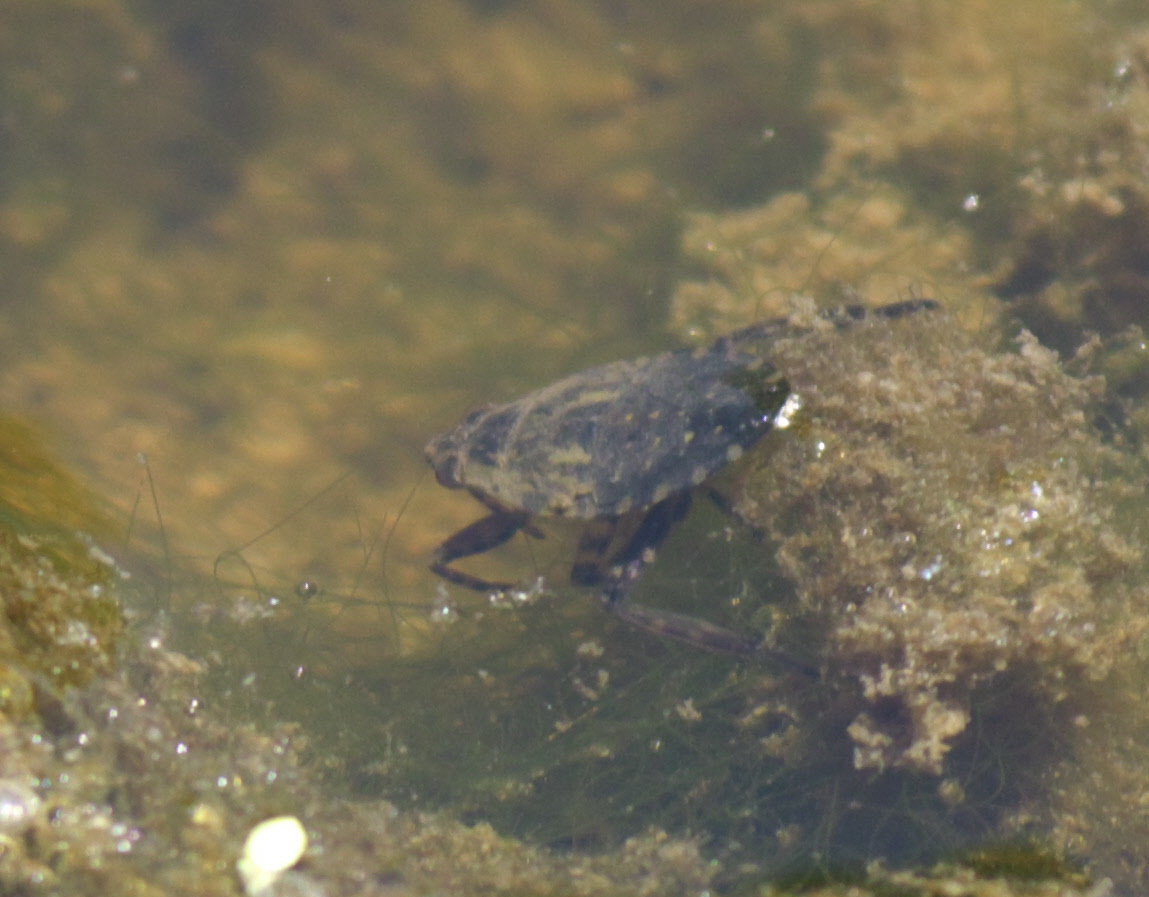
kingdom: Animalia
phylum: Arthropoda
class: Insecta
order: Hemiptera
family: Belostomatidae
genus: Belostoma
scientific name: Belostoma
